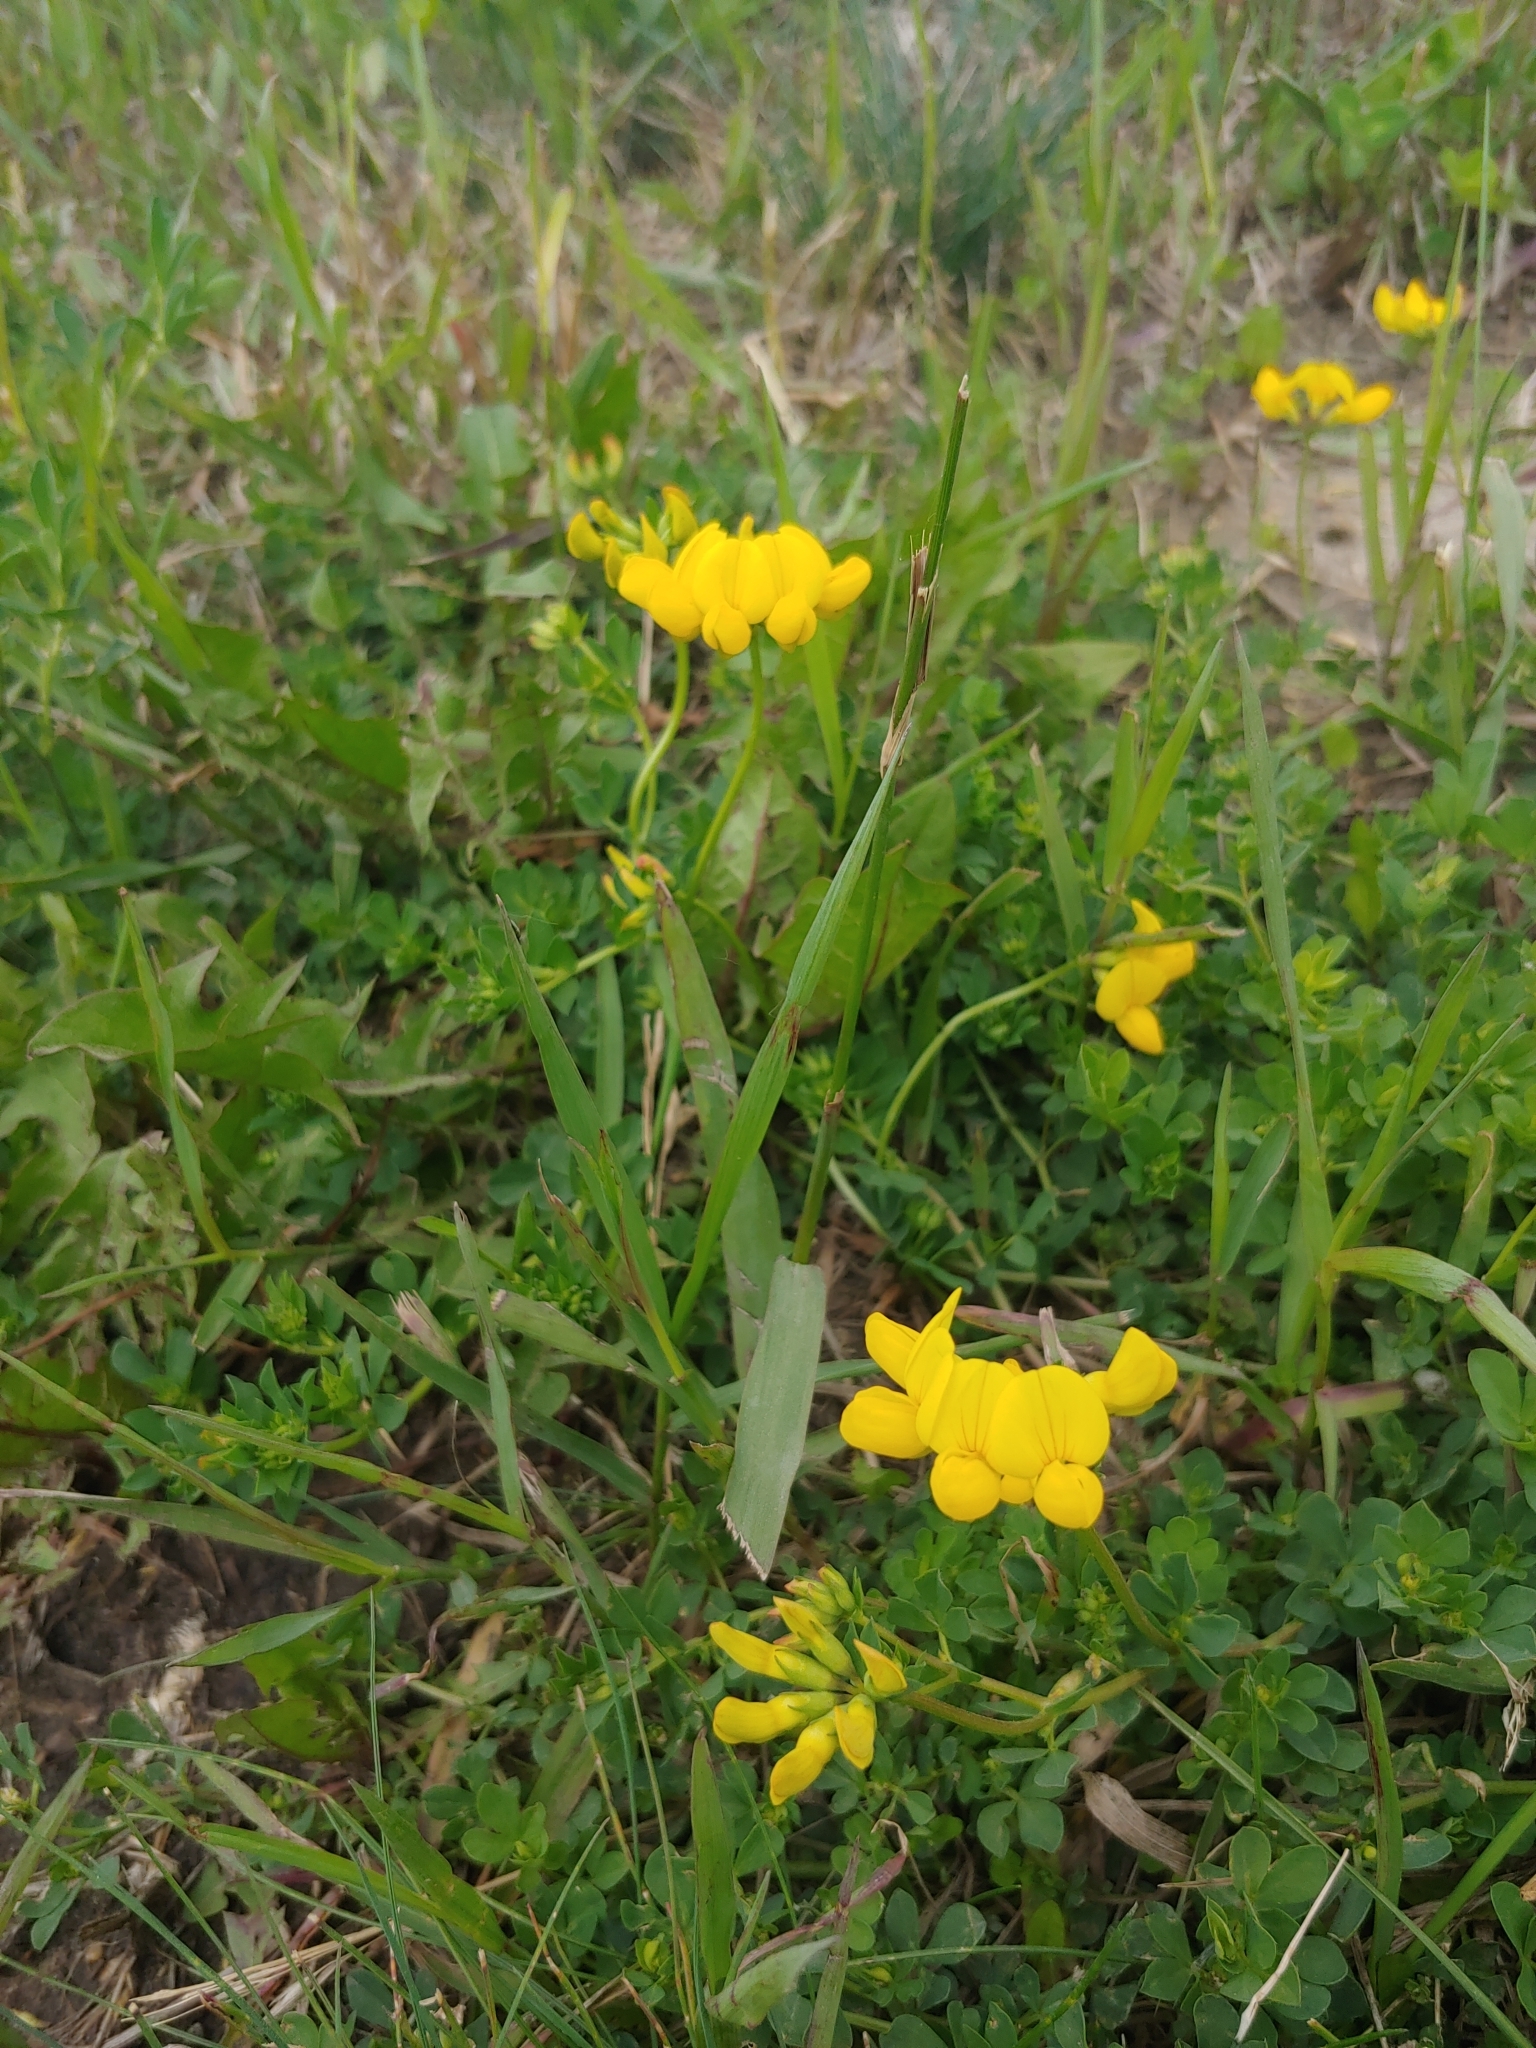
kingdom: Plantae
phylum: Tracheophyta
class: Magnoliopsida
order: Fabales
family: Fabaceae
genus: Lotus
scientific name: Lotus corniculatus
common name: Common bird's-foot-trefoil
